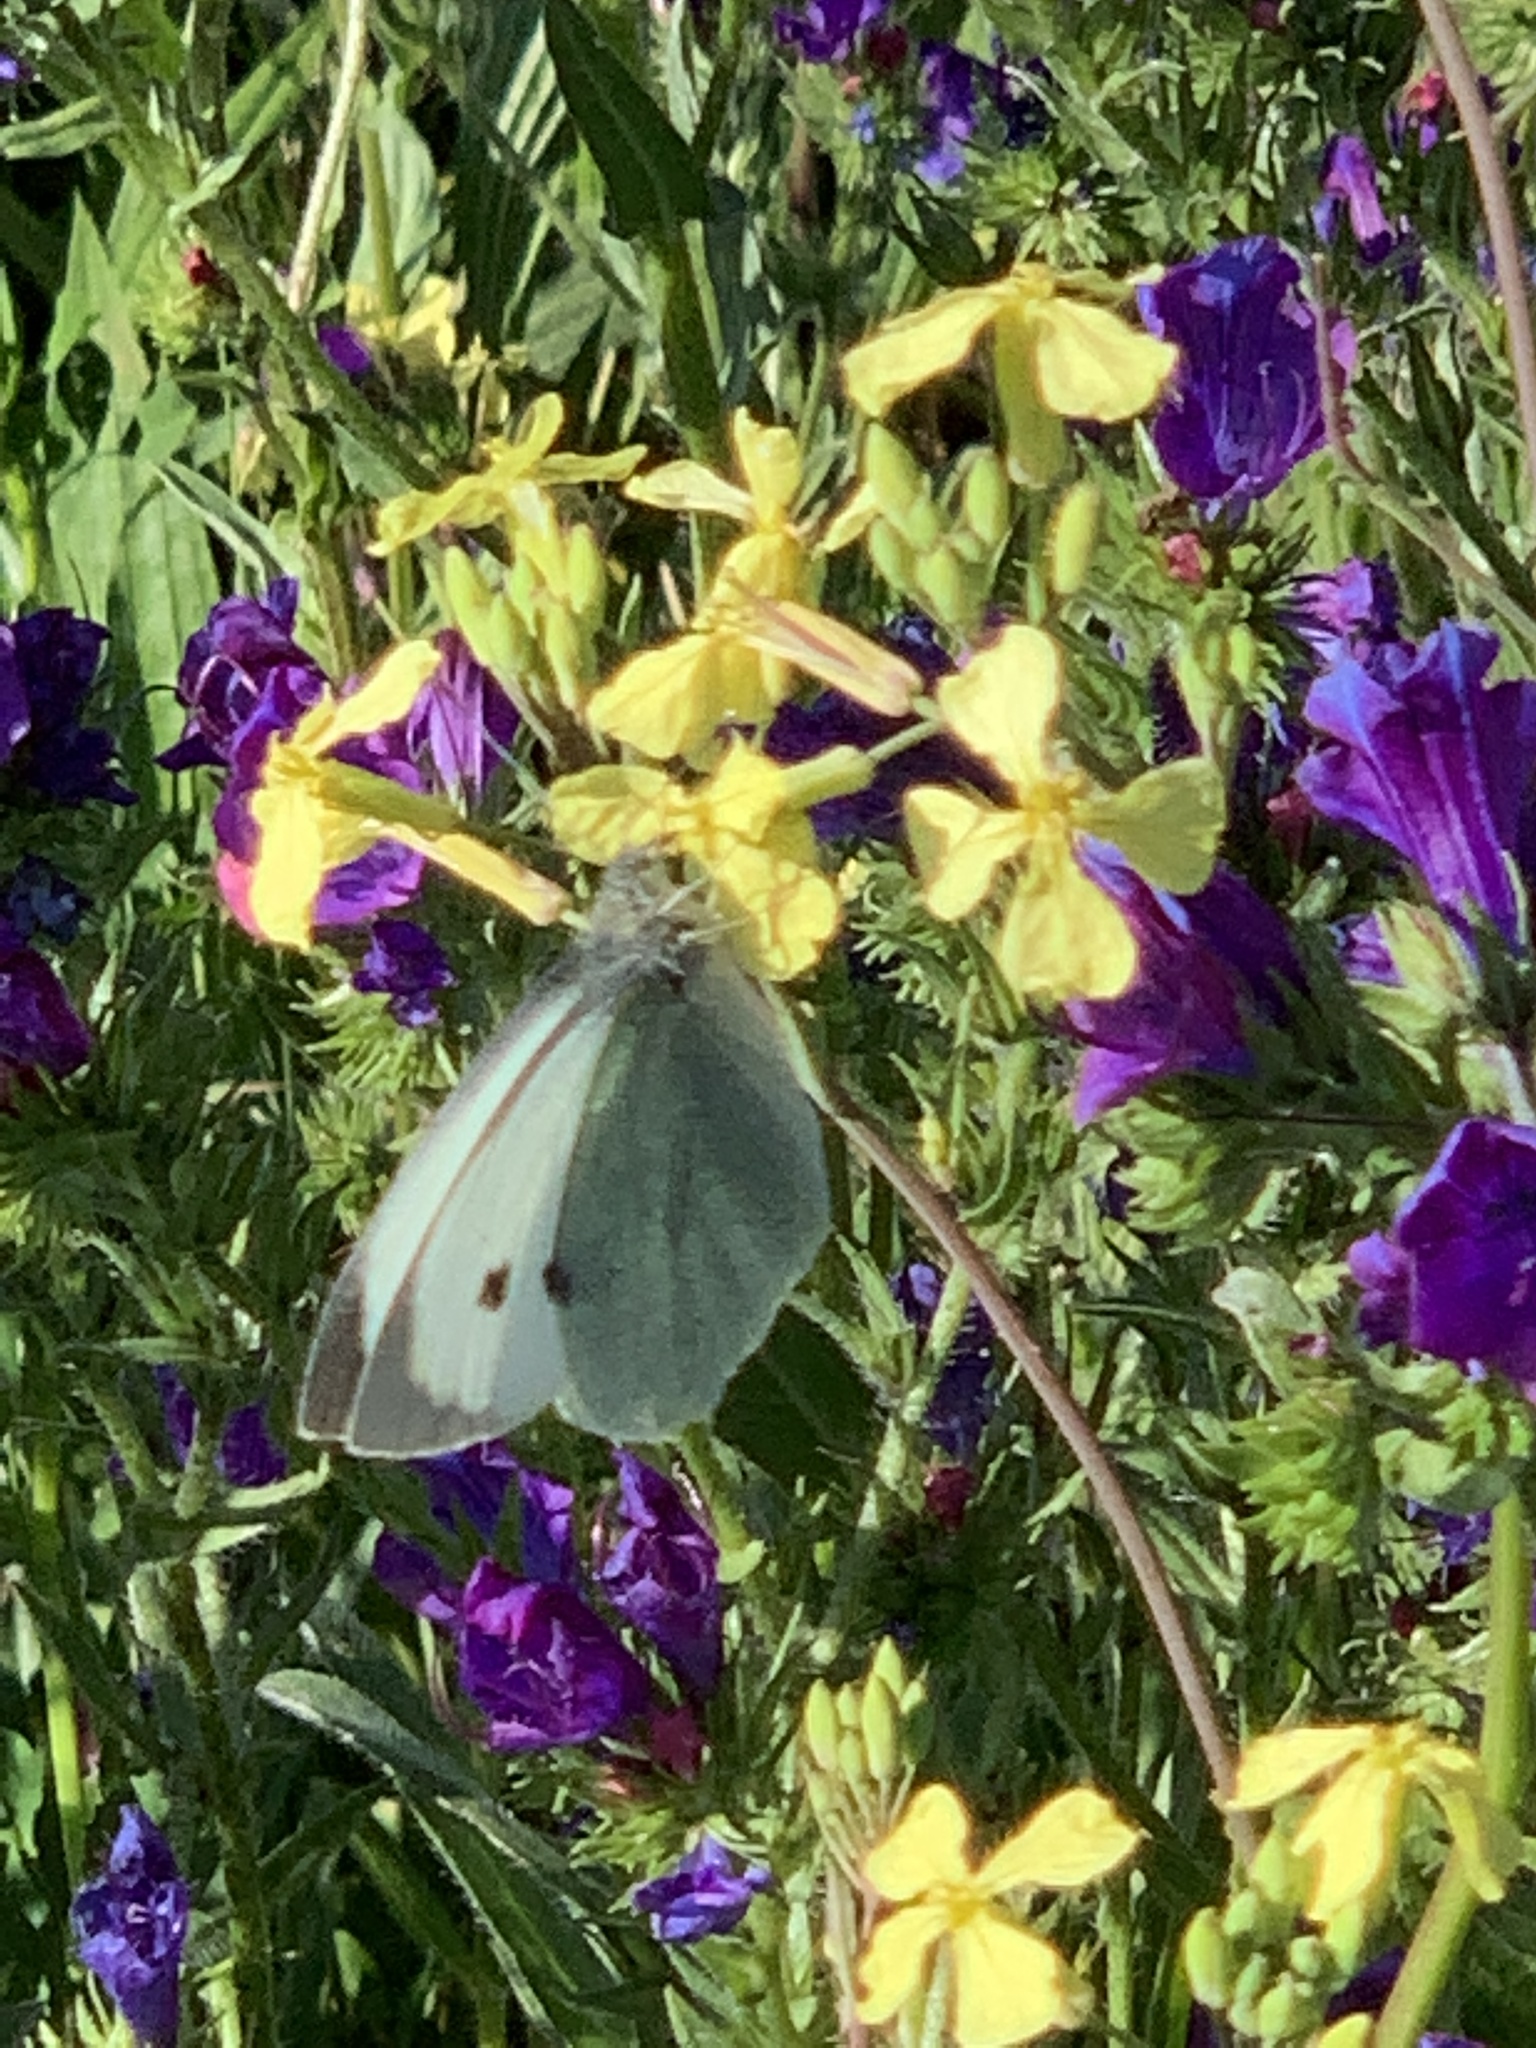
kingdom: Animalia
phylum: Arthropoda
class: Insecta
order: Lepidoptera
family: Pieridae
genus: Pieris
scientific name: Pieris brassicae
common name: Large white
